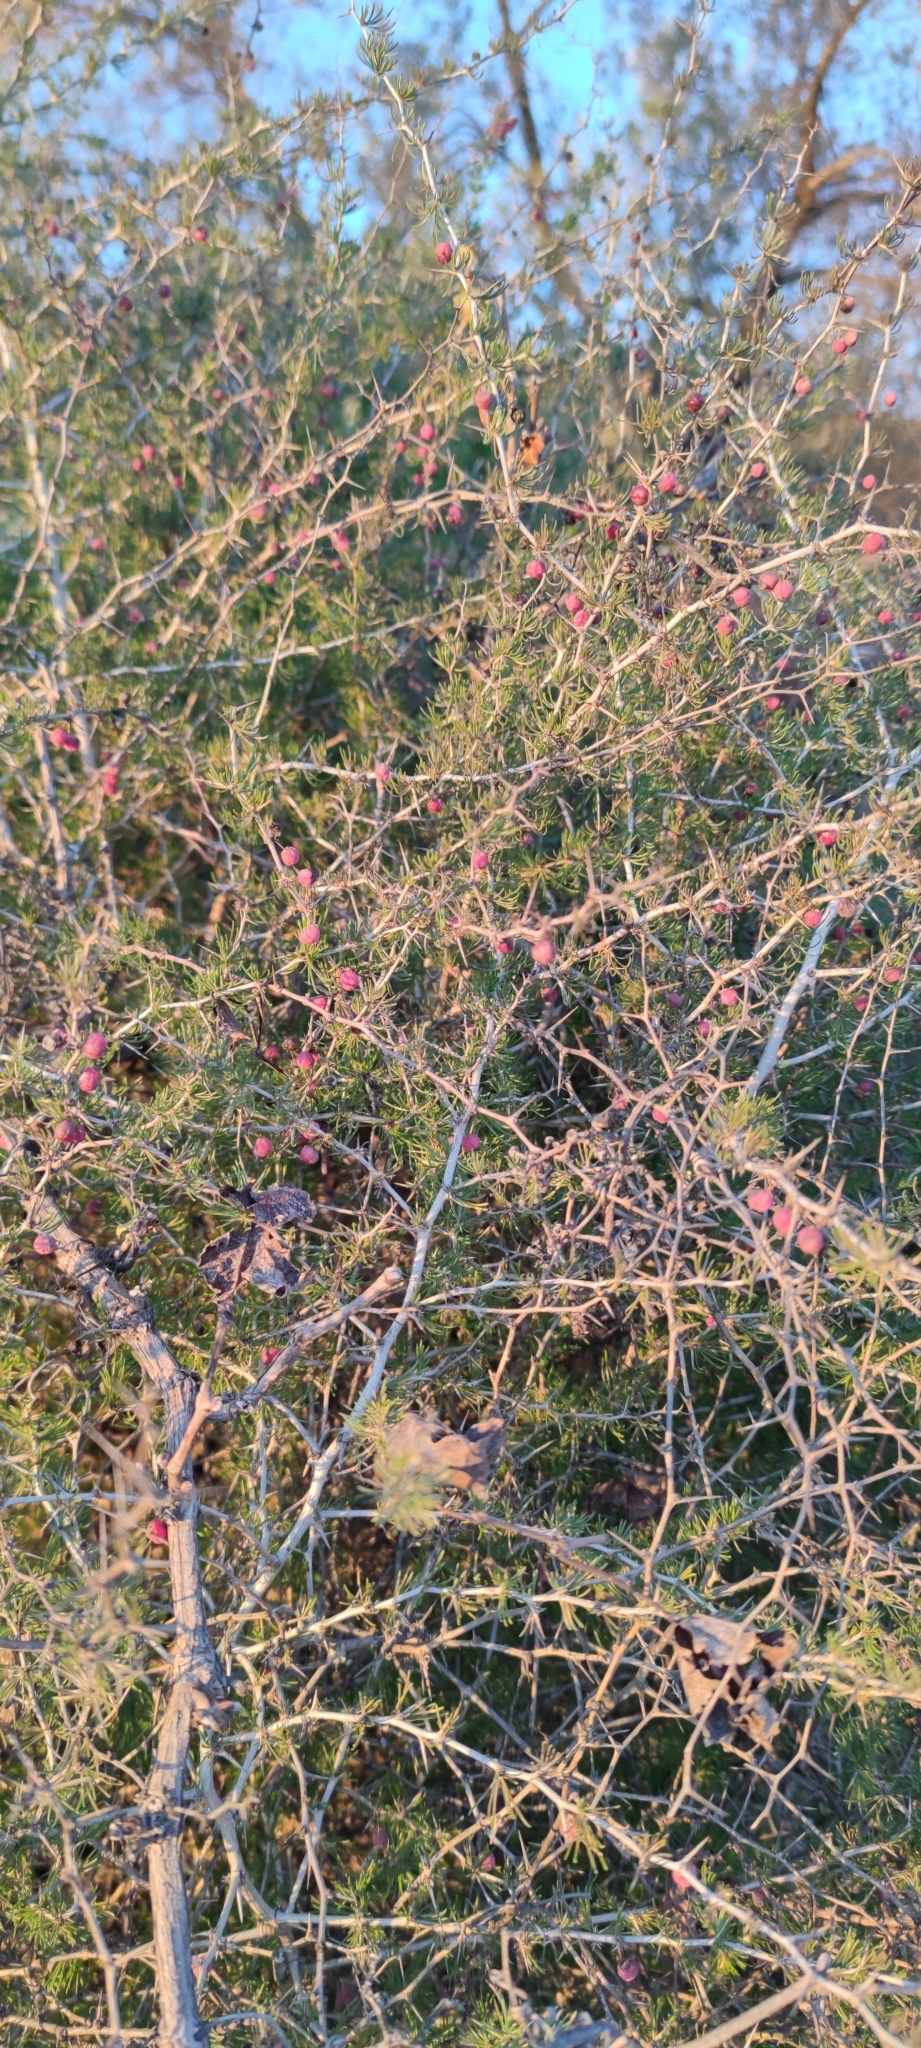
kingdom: Plantae
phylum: Tracheophyta
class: Liliopsida
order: Asparagales
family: Asparagaceae
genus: Asparagus
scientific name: Asparagus albus
